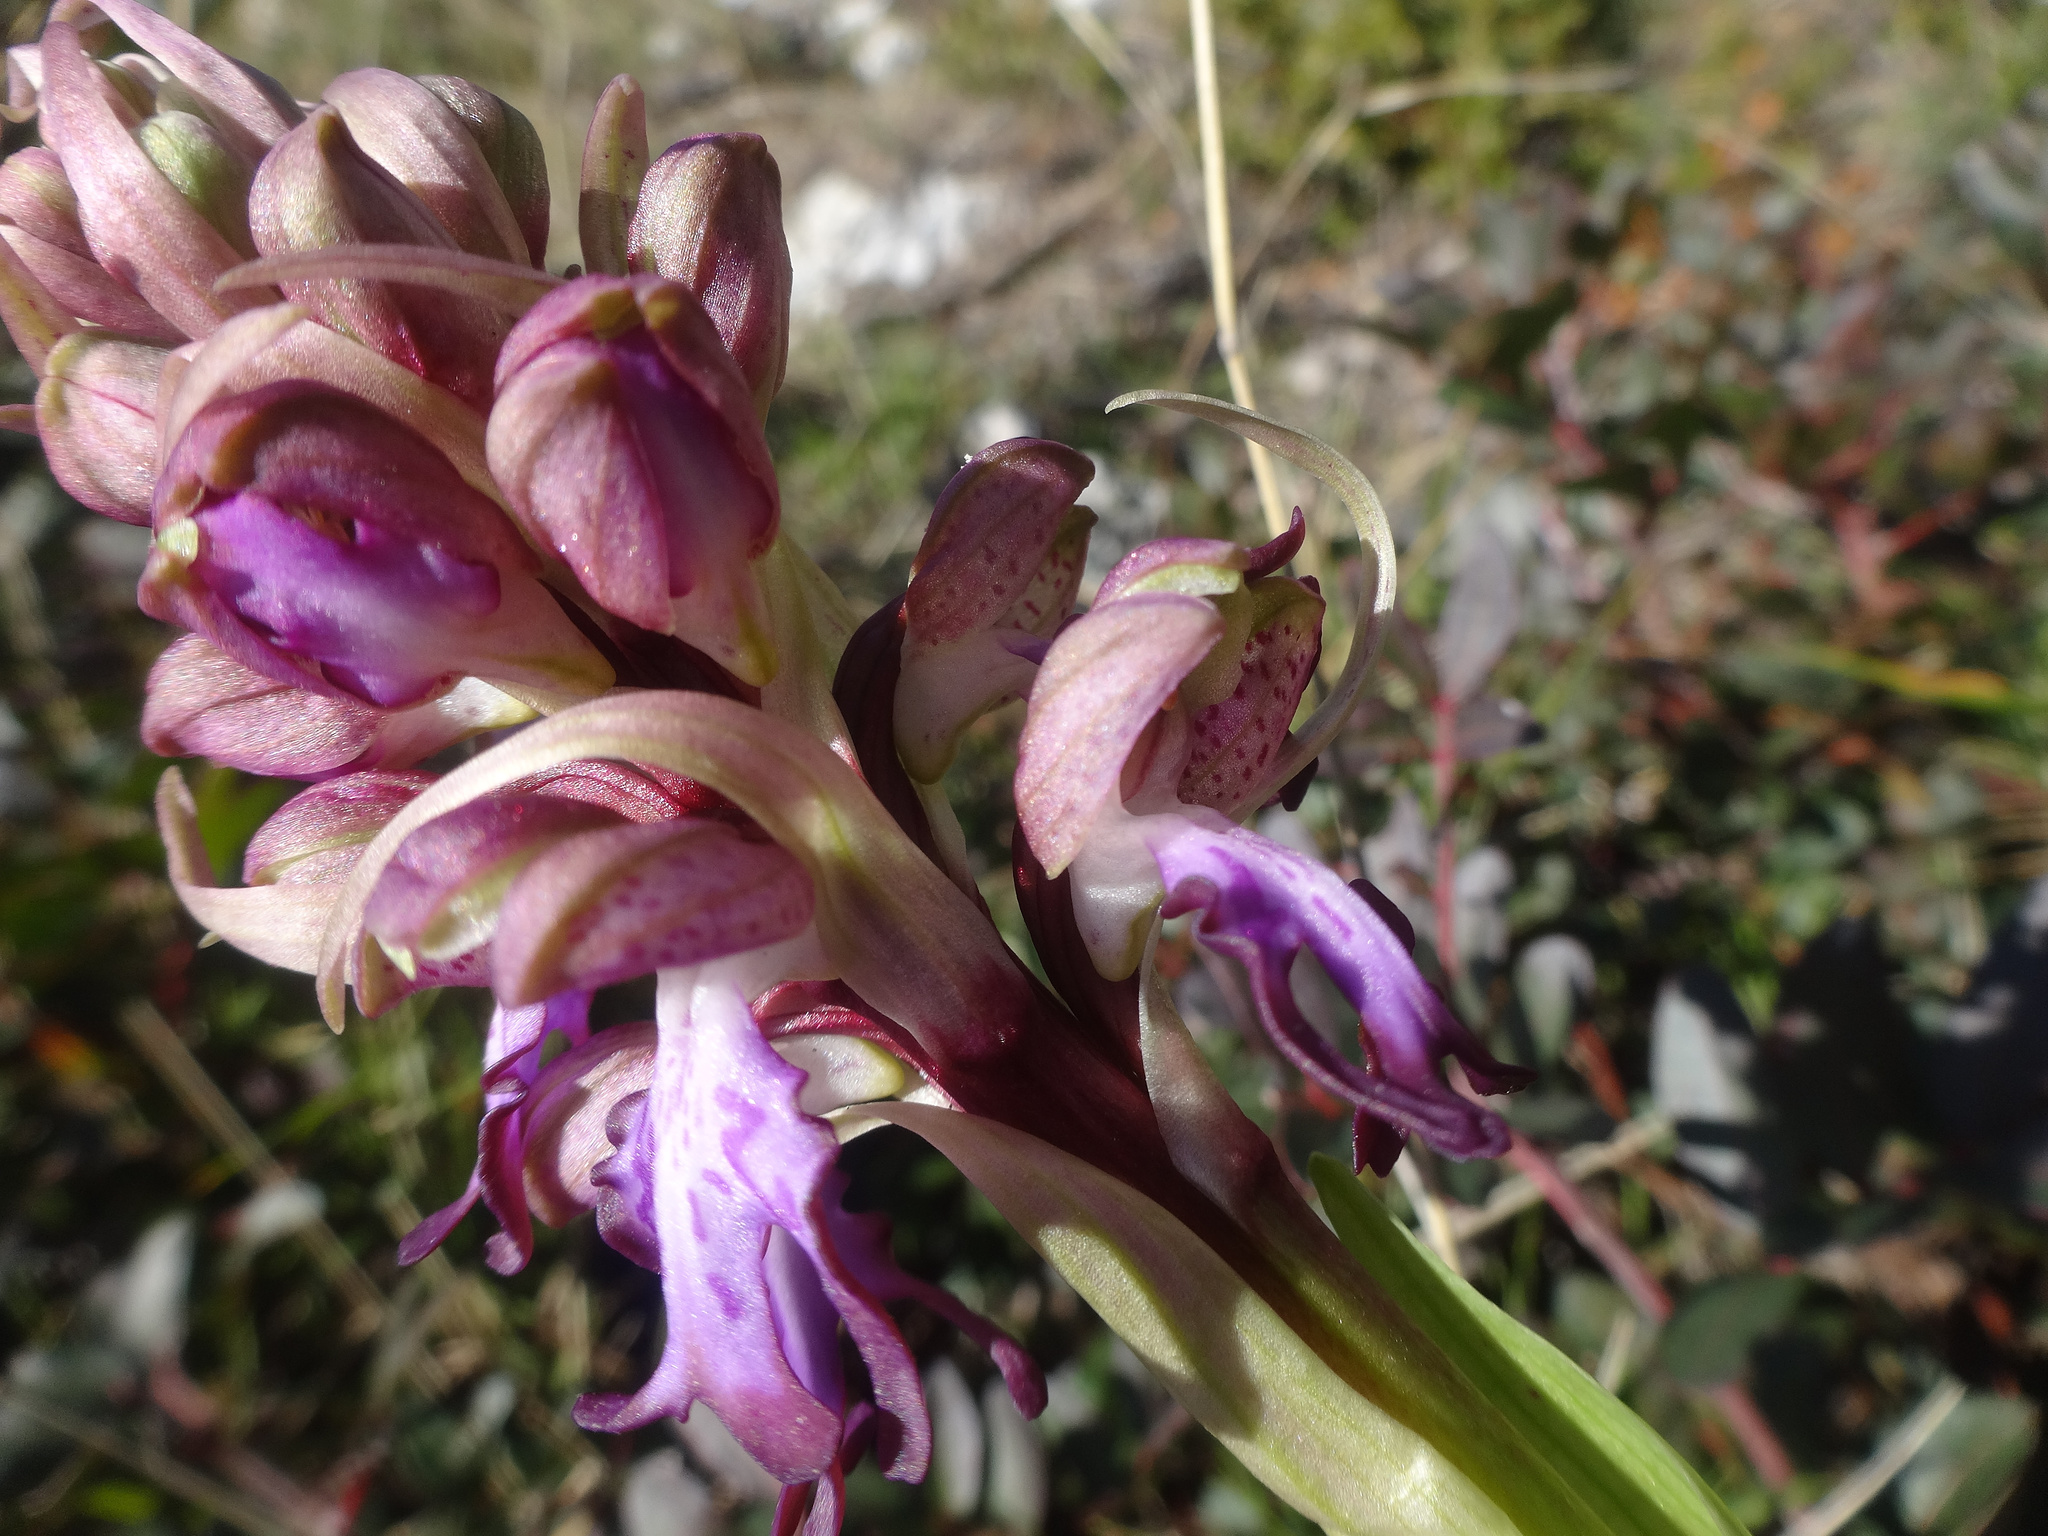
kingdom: Plantae
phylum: Tracheophyta
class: Liliopsida
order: Asparagales
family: Orchidaceae
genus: Himantoglossum
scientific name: Himantoglossum robertianum
